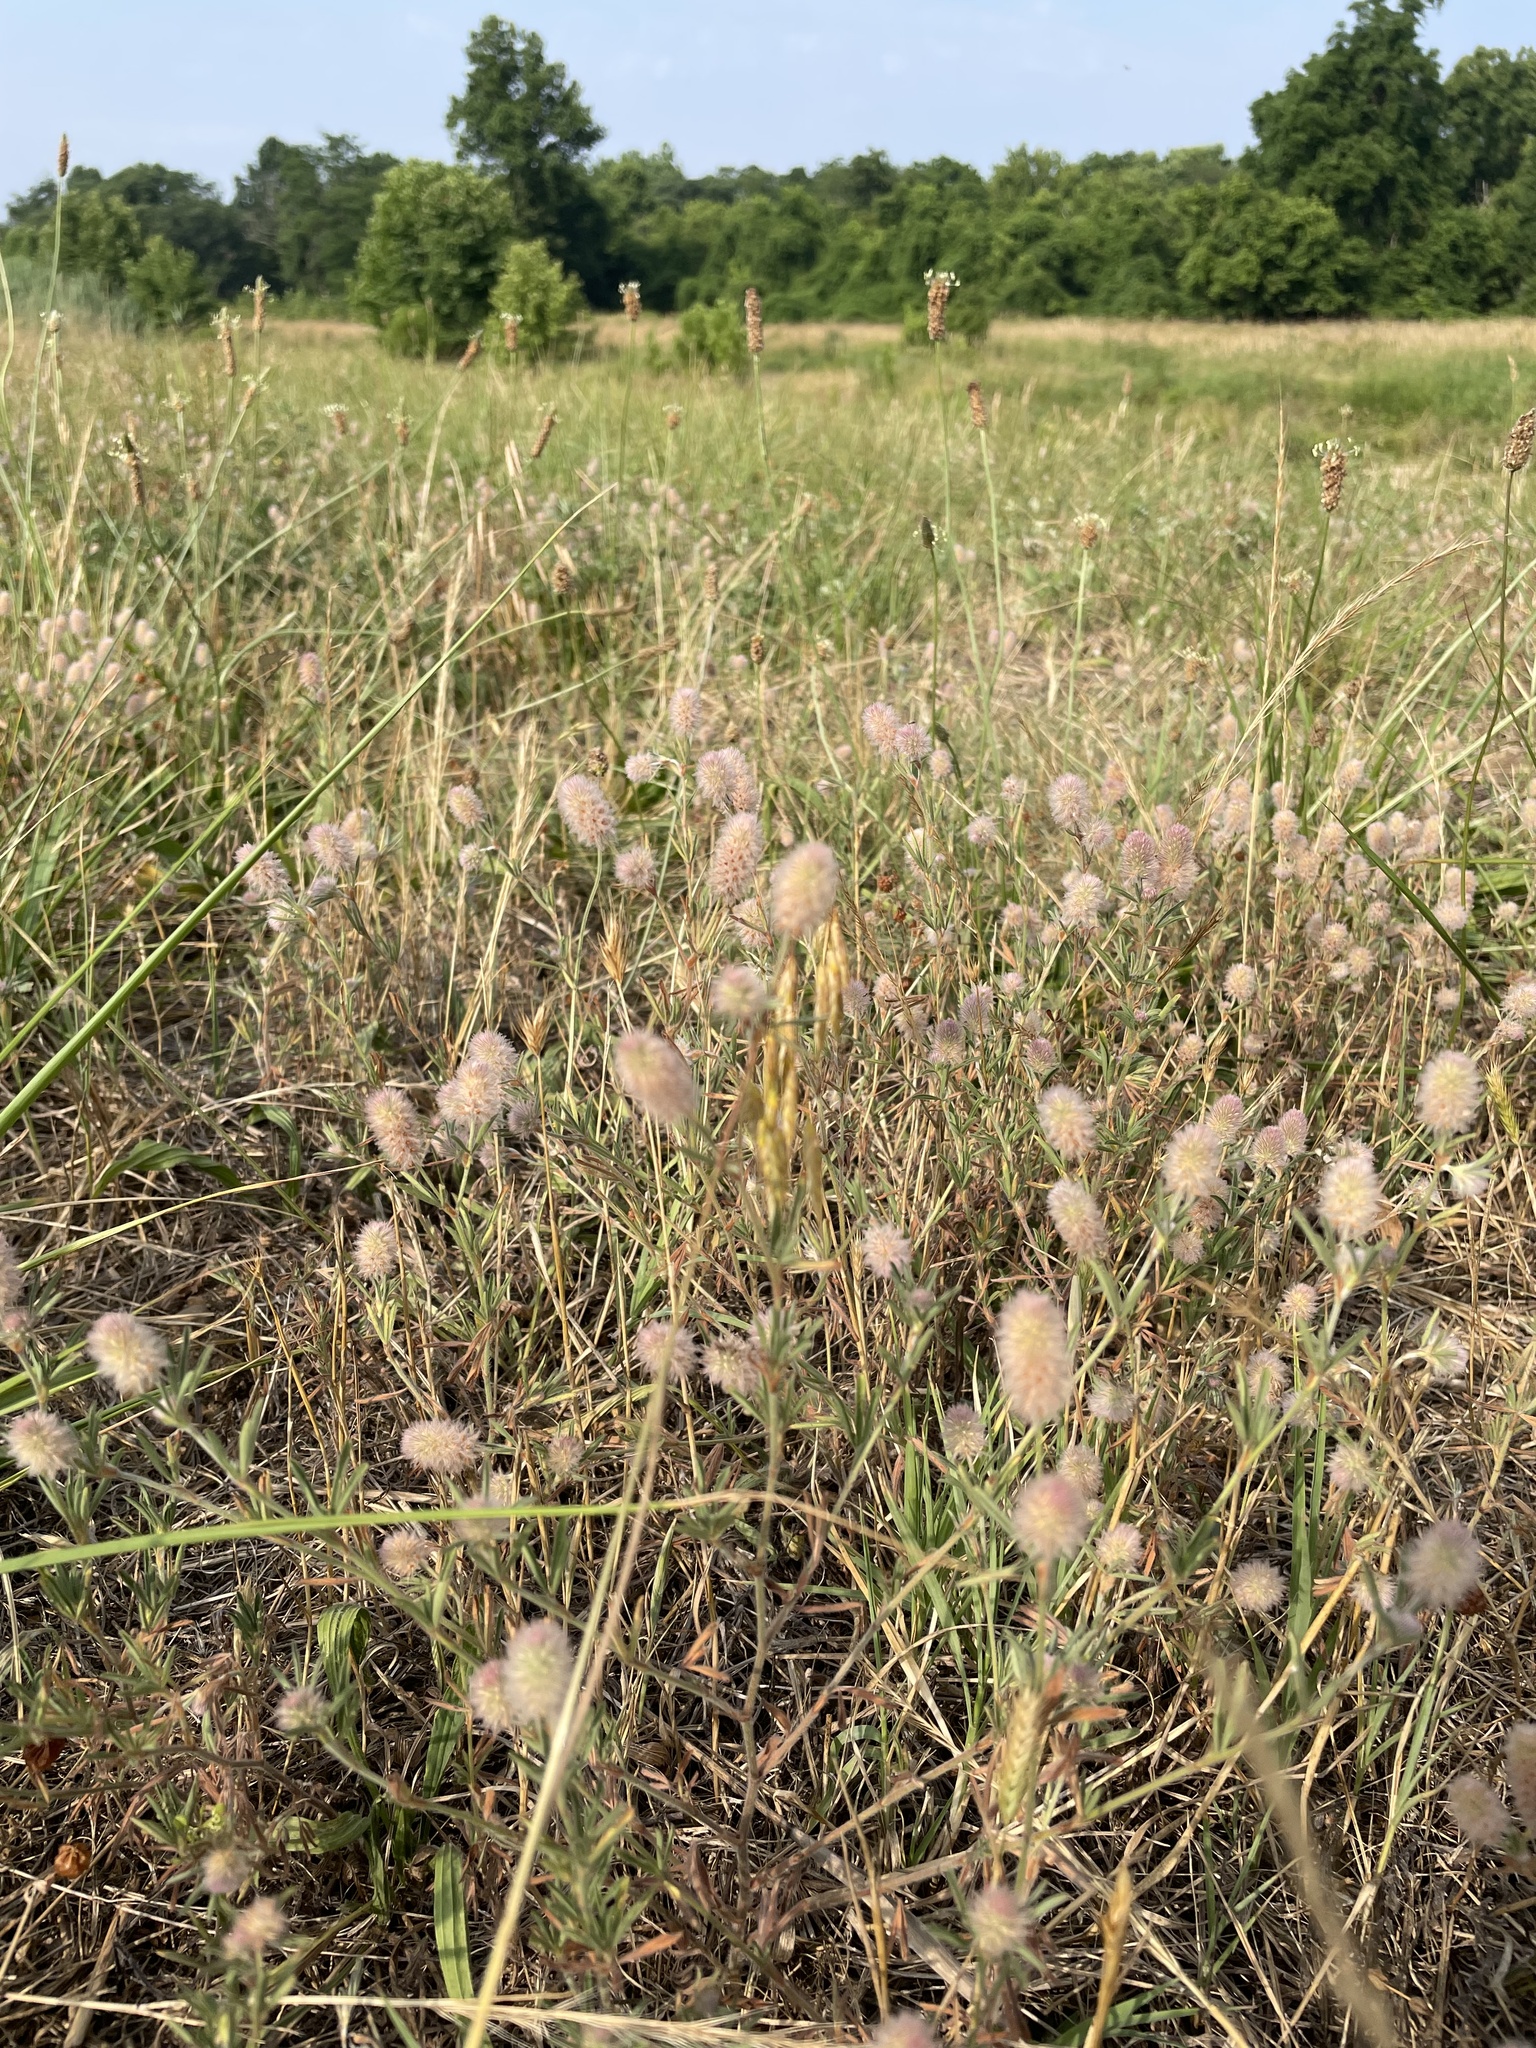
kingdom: Plantae
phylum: Tracheophyta
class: Magnoliopsida
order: Fabales
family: Fabaceae
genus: Trifolium
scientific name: Trifolium arvense
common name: Hare's-foot clover
